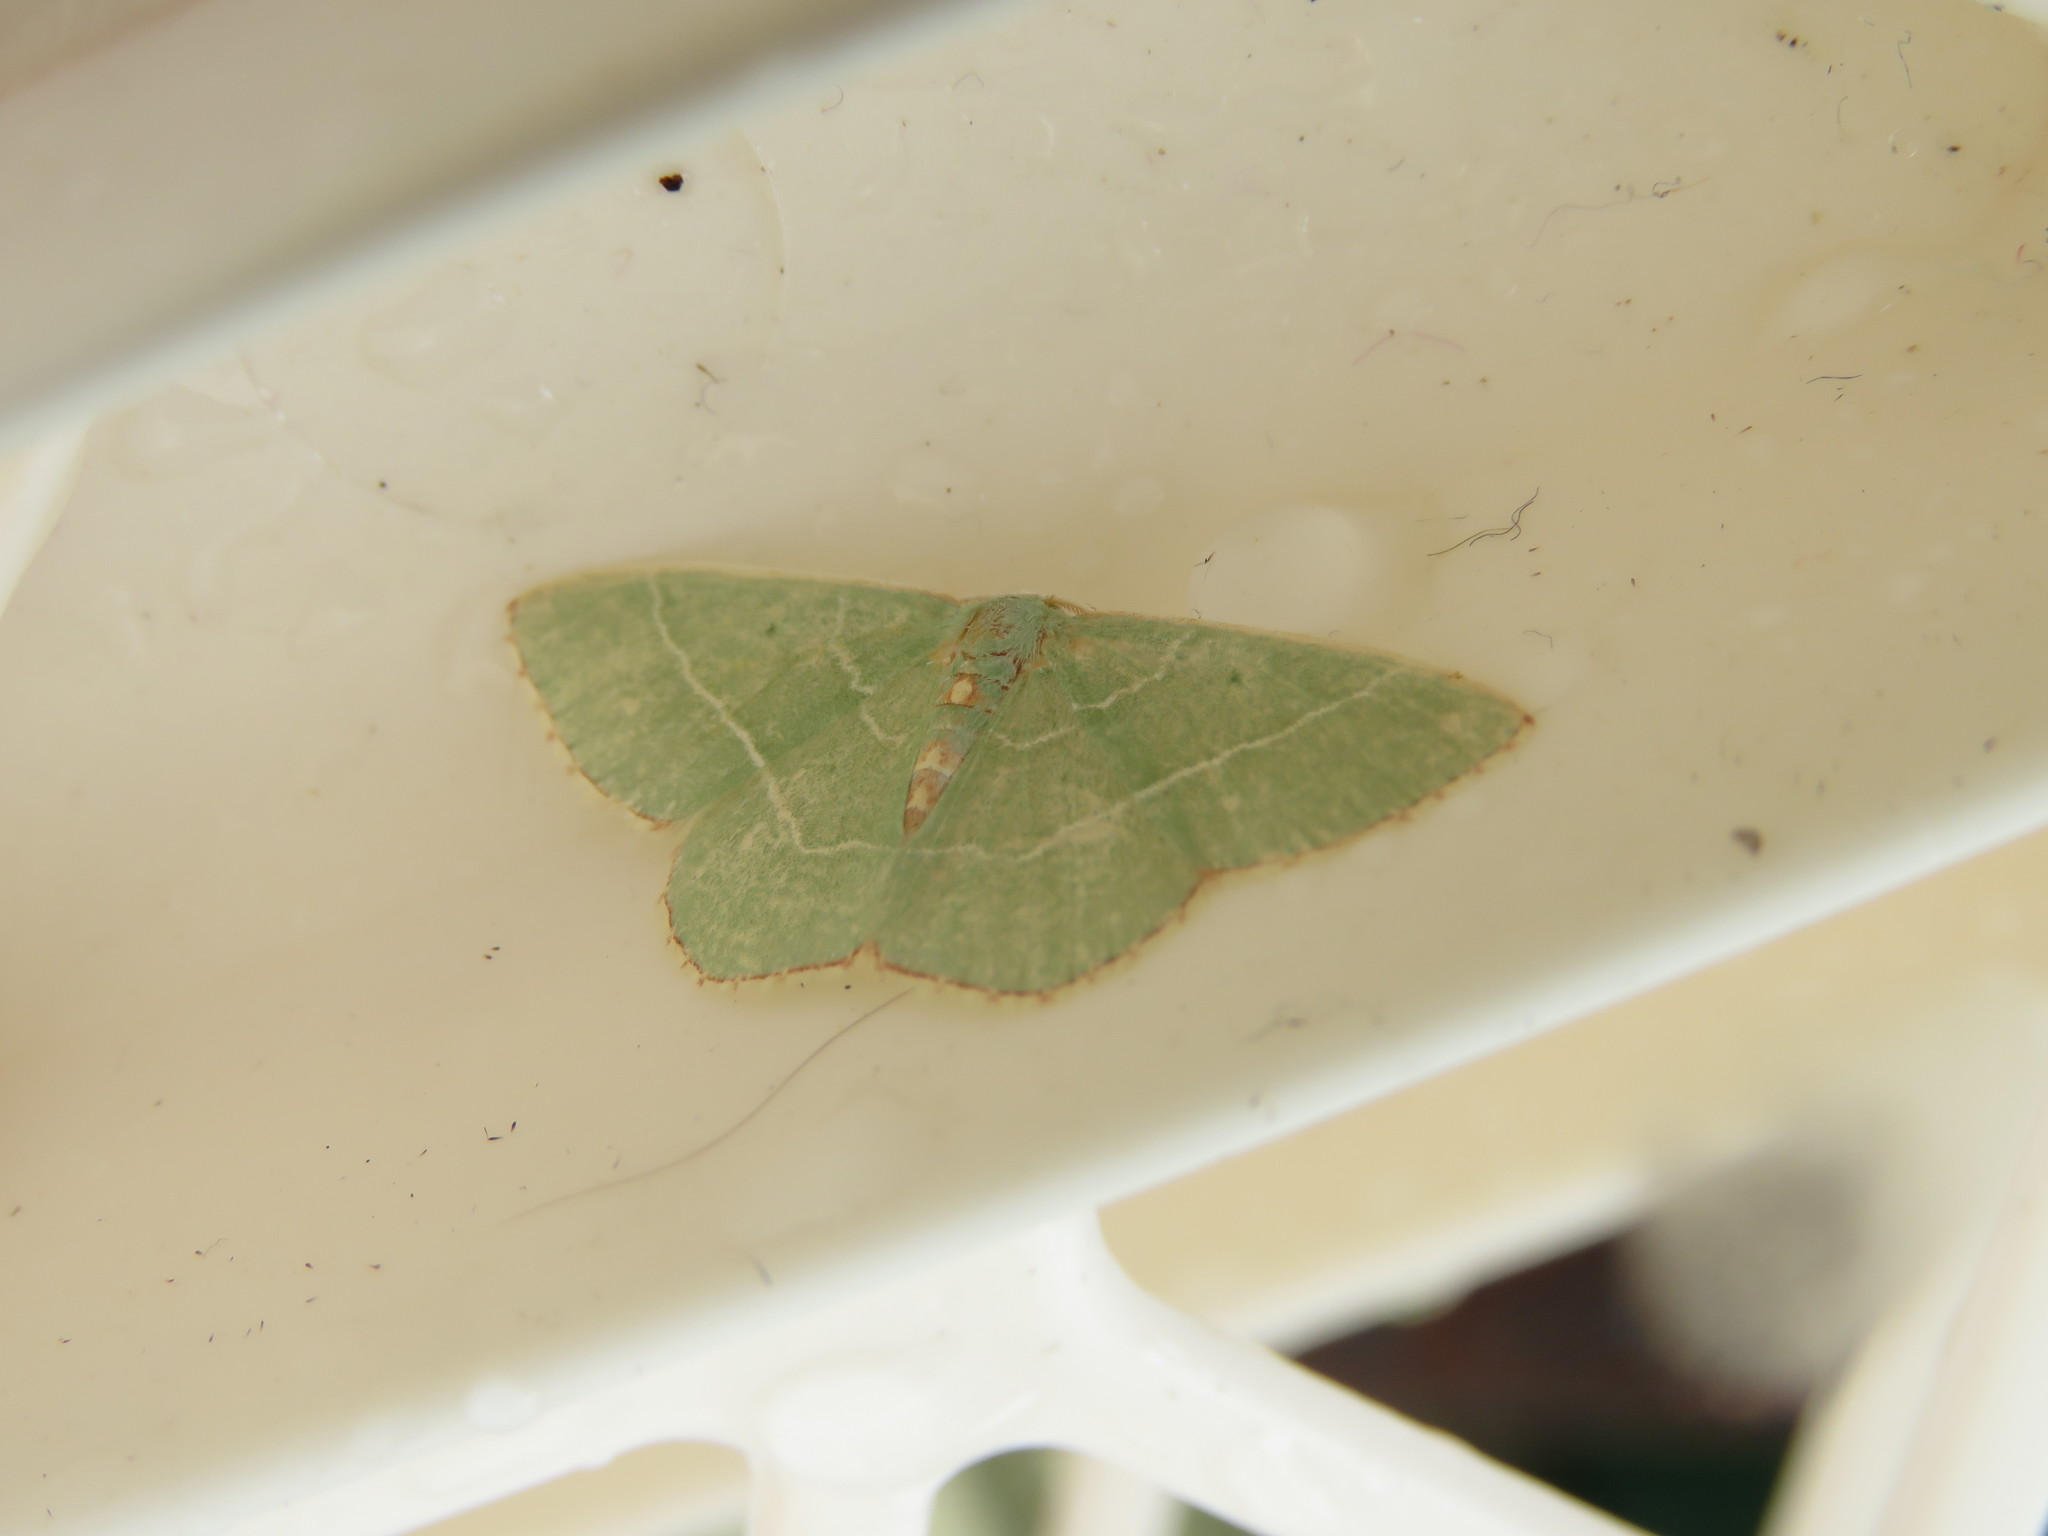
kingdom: Animalia
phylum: Arthropoda
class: Insecta
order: Lepidoptera
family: Geometridae
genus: Nemoria
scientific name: Nemoria bistriaria
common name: Red-fringed emerald
